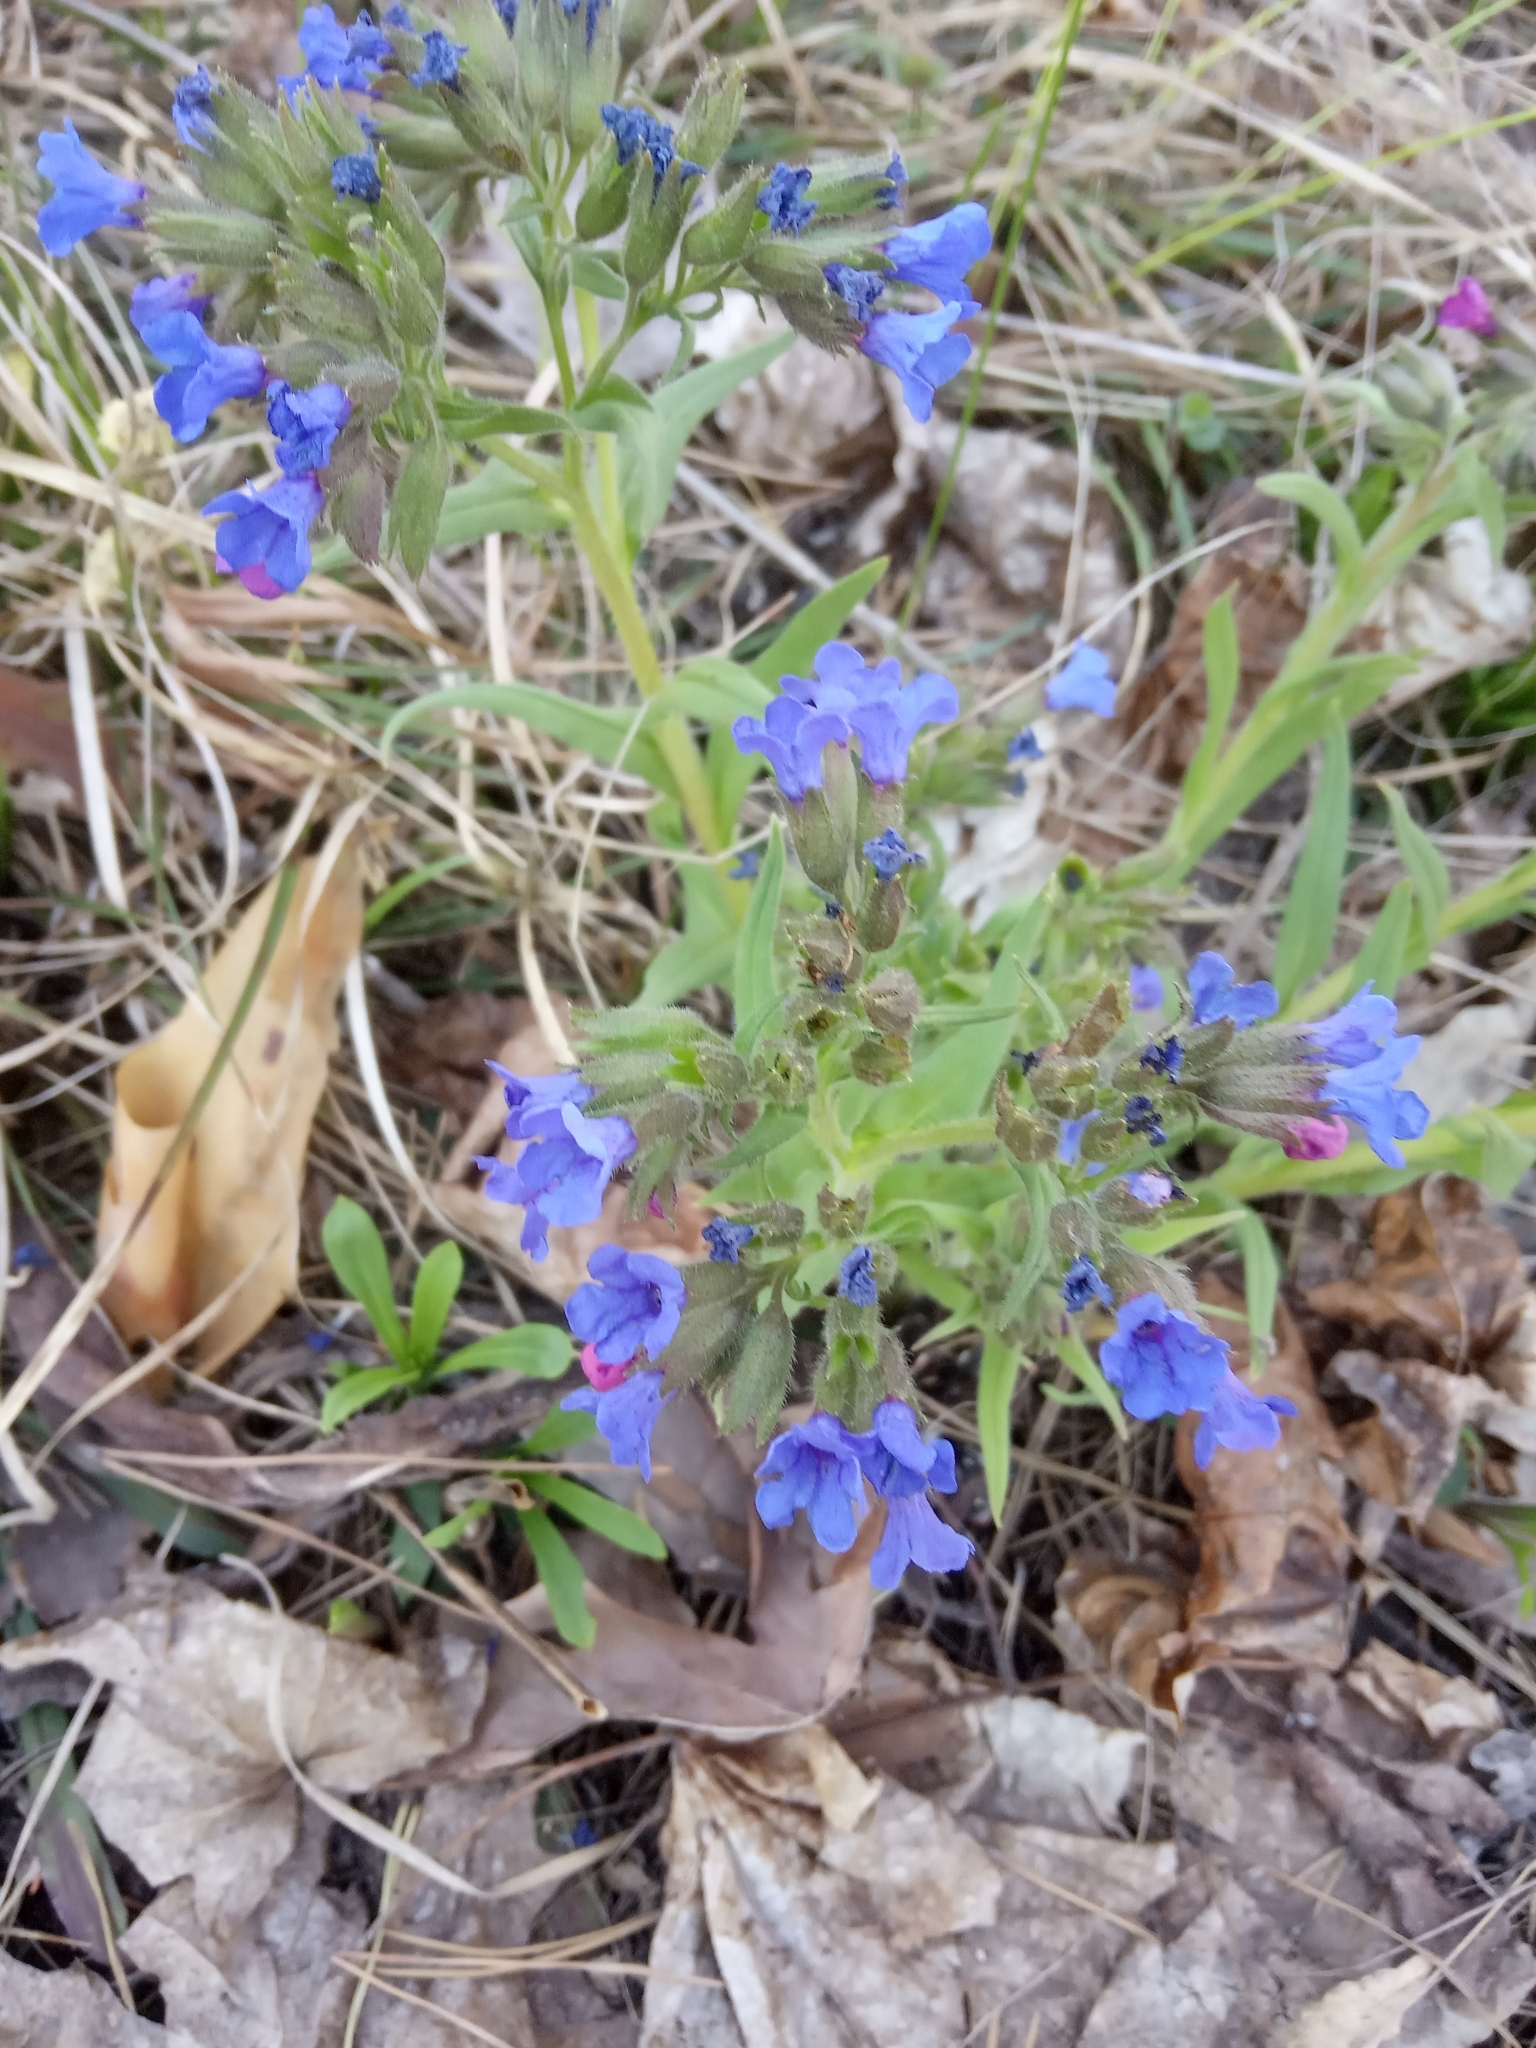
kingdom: Plantae
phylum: Tracheophyta
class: Magnoliopsida
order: Boraginales
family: Boraginaceae
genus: Pulmonaria
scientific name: Pulmonaria angustifolia
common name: Blue cowslip
